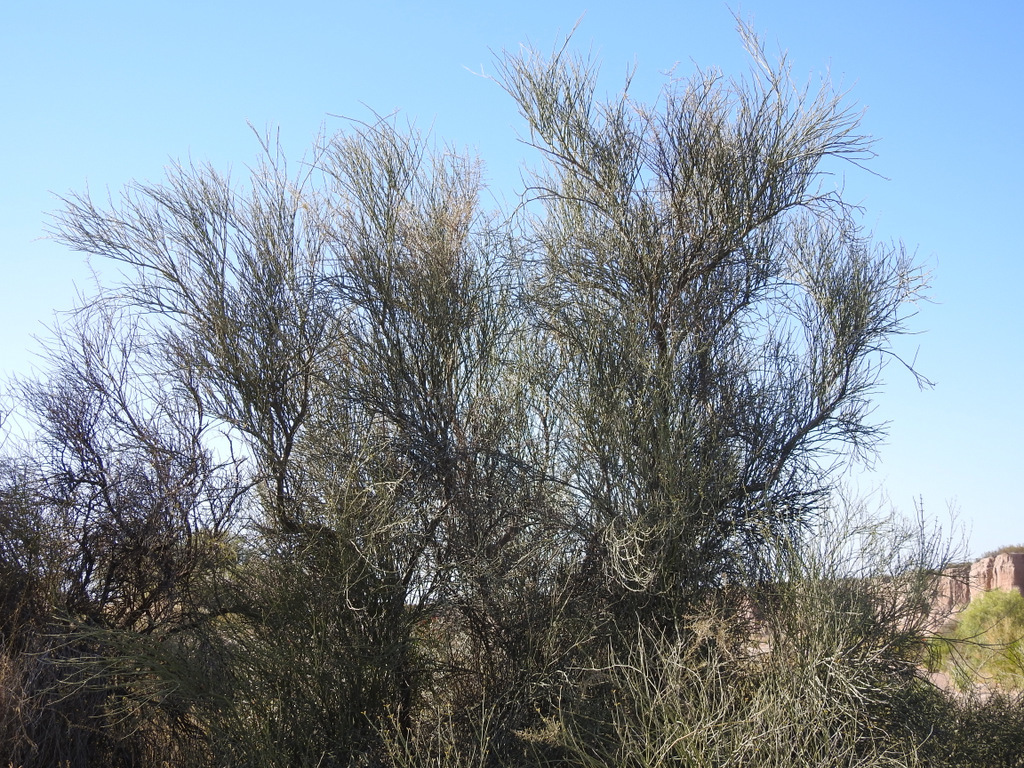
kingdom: Plantae
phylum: Tracheophyta
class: Magnoliopsida
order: Zygophyllales
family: Zygophyllaceae
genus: Bulnesia
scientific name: Bulnesia retama
